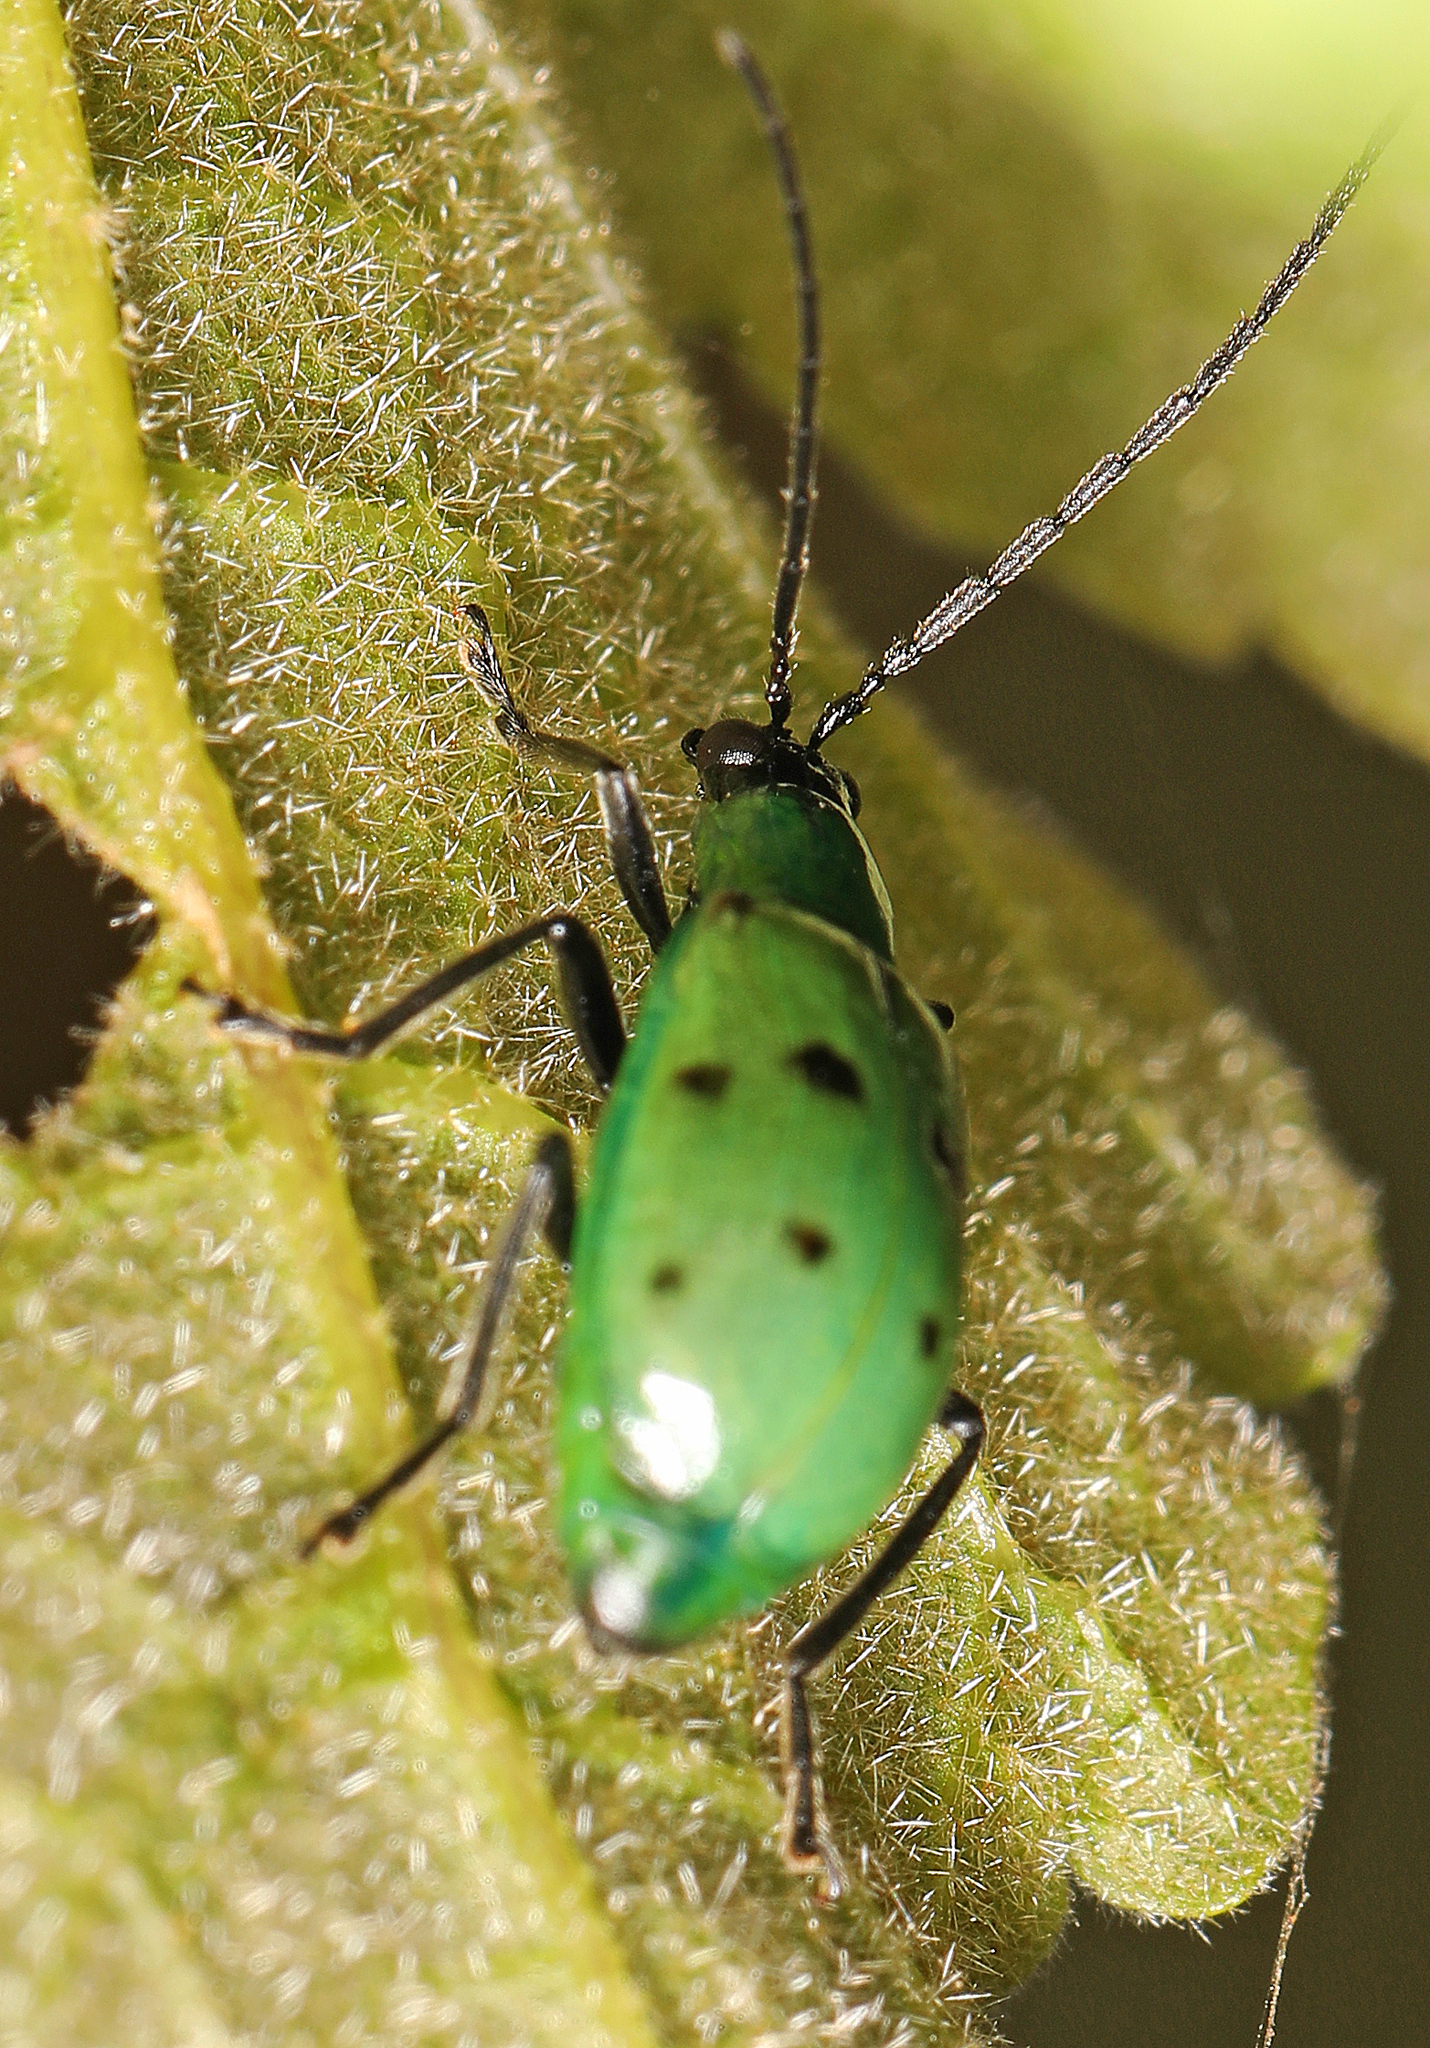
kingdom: Animalia
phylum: Arthropoda
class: Insecta
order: Coleoptera
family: Chrysomelidae
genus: Diabrotica
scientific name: Diabrotica decempunctata
